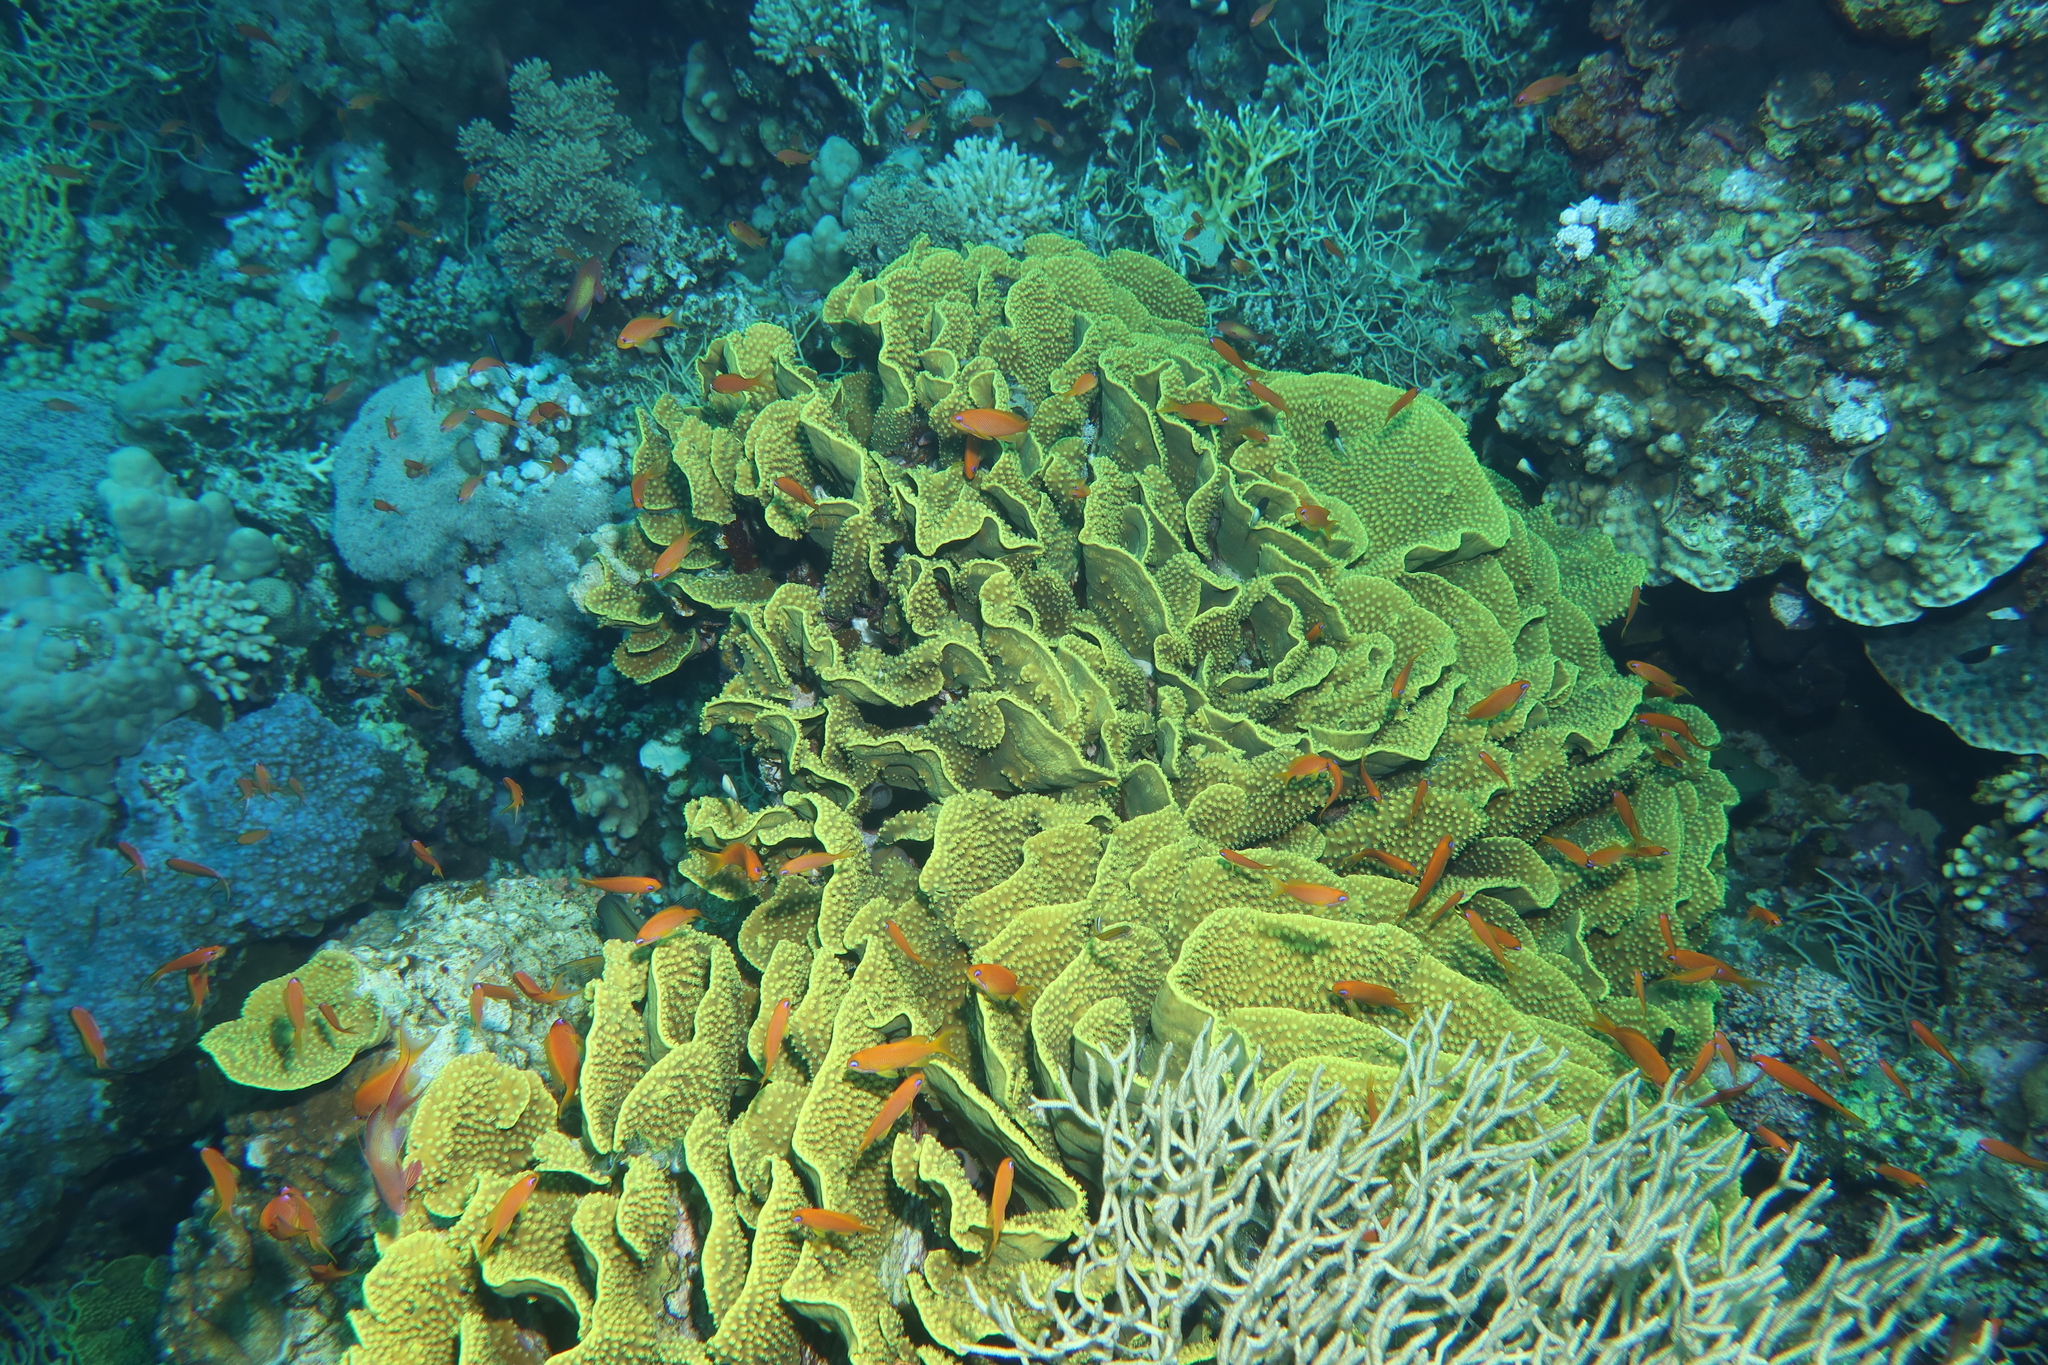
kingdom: Animalia
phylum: Cnidaria
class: Anthozoa
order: Scleractinia
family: Dendrophylliidae
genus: Turbinaria
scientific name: Turbinaria reniformis
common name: Disc coral
